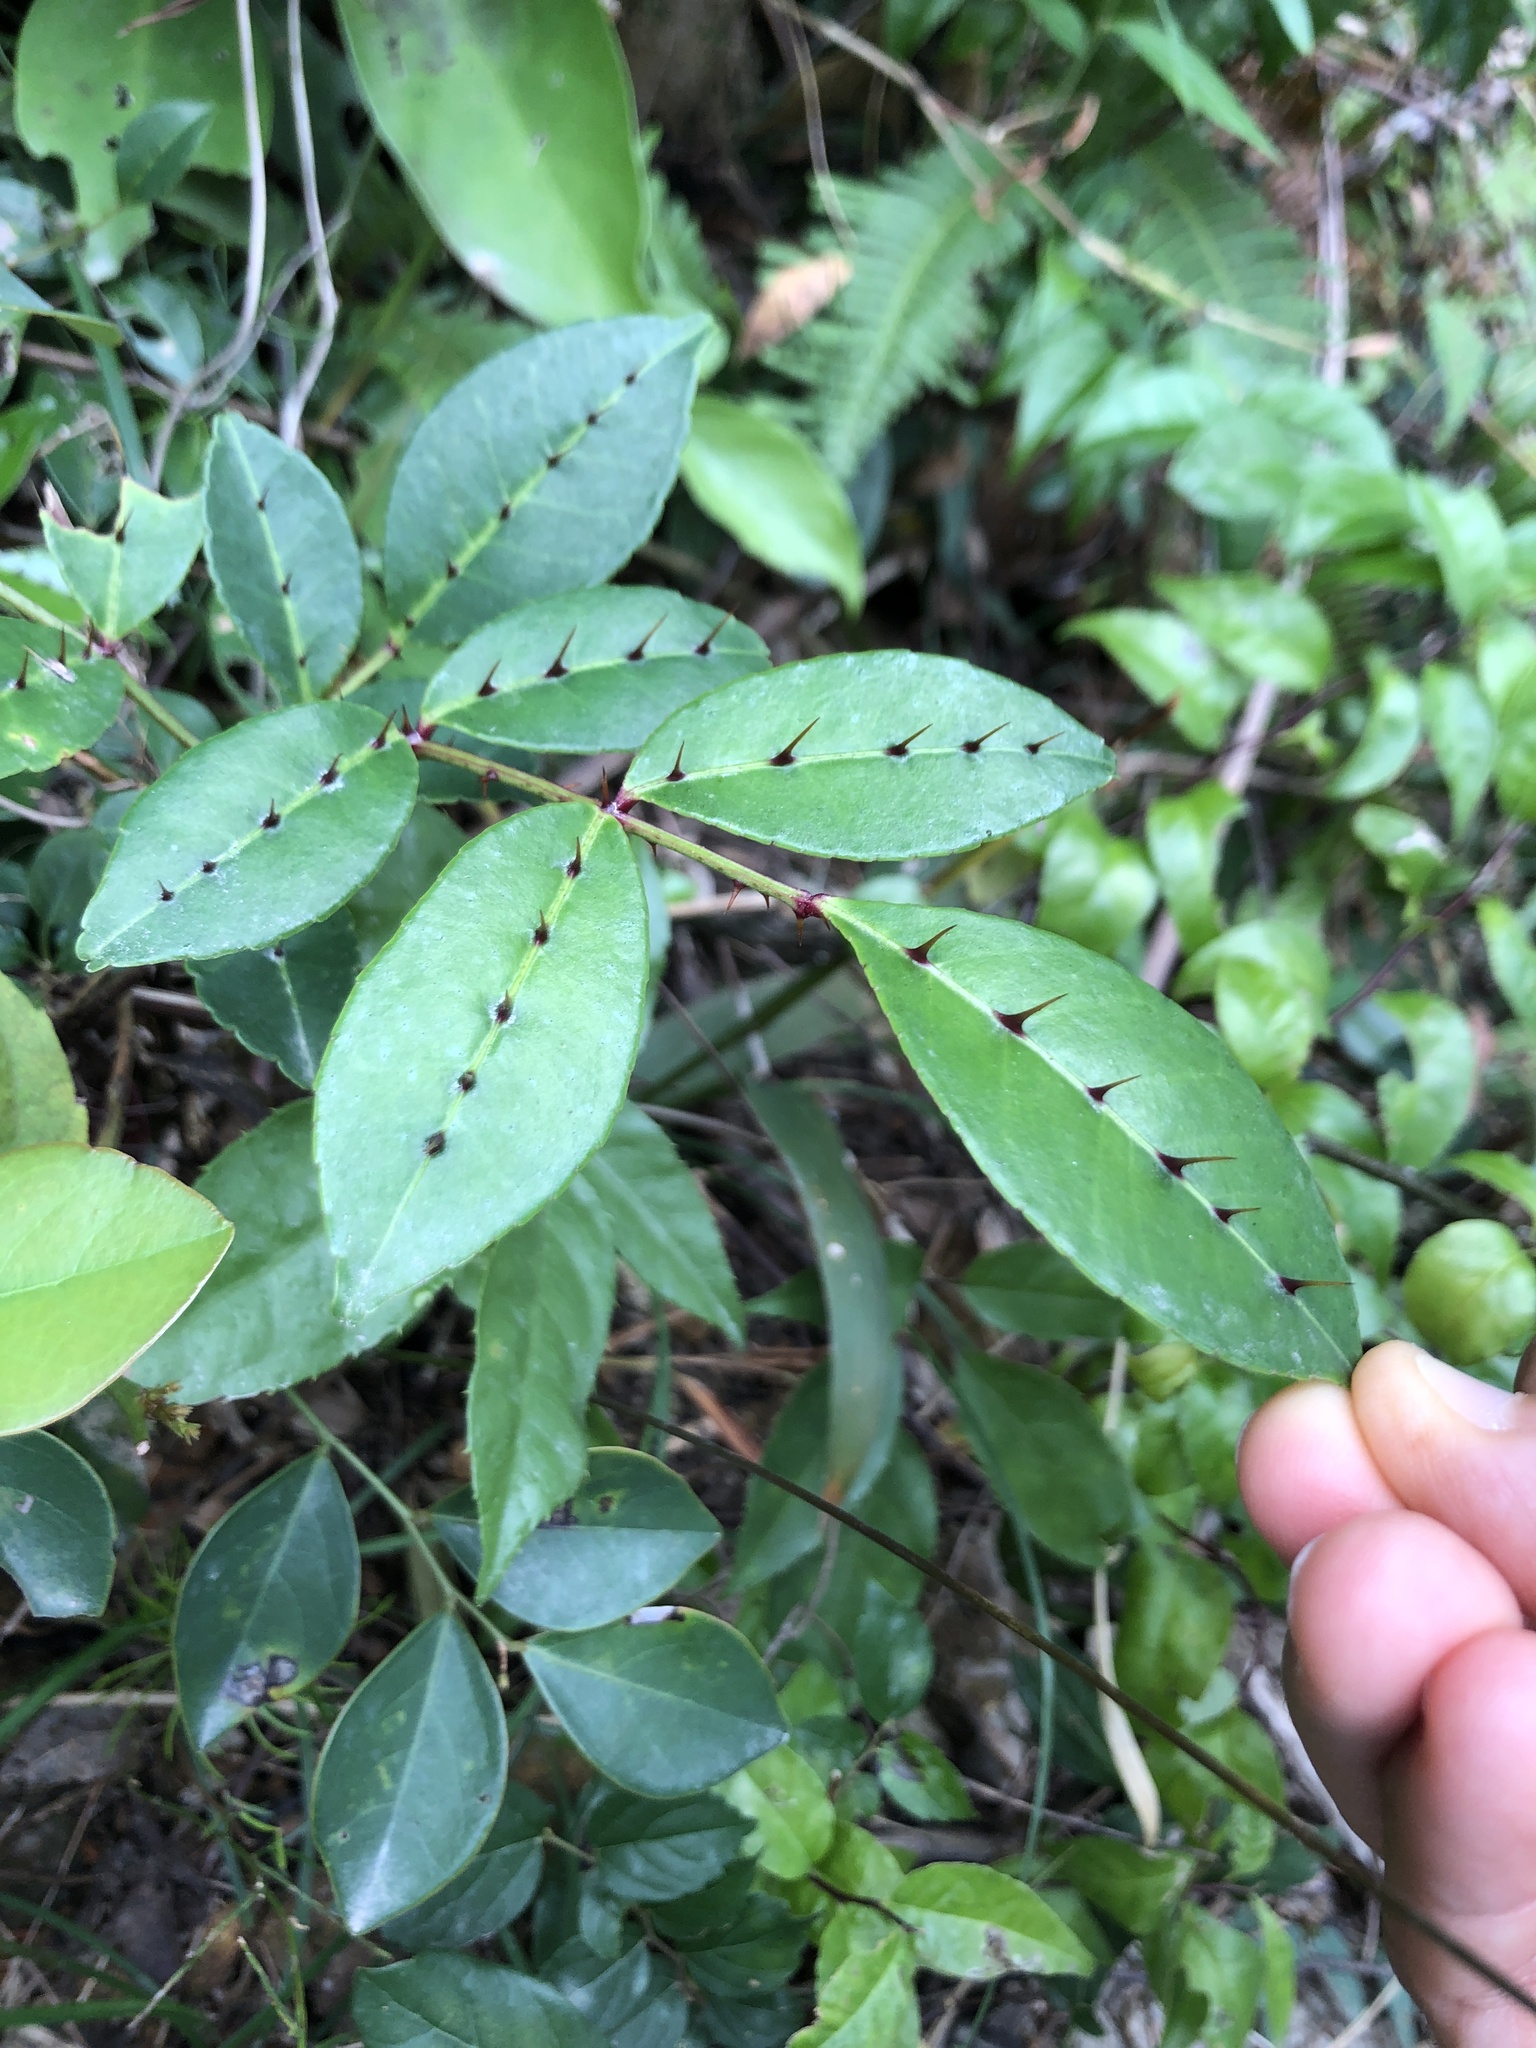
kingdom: Plantae
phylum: Tracheophyta
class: Magnoliopsida
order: Sapindales
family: Rutaceae
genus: Zanthoxylum
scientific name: Zanthoxylum nitidum
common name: Shiny-leaf prickly-ash
